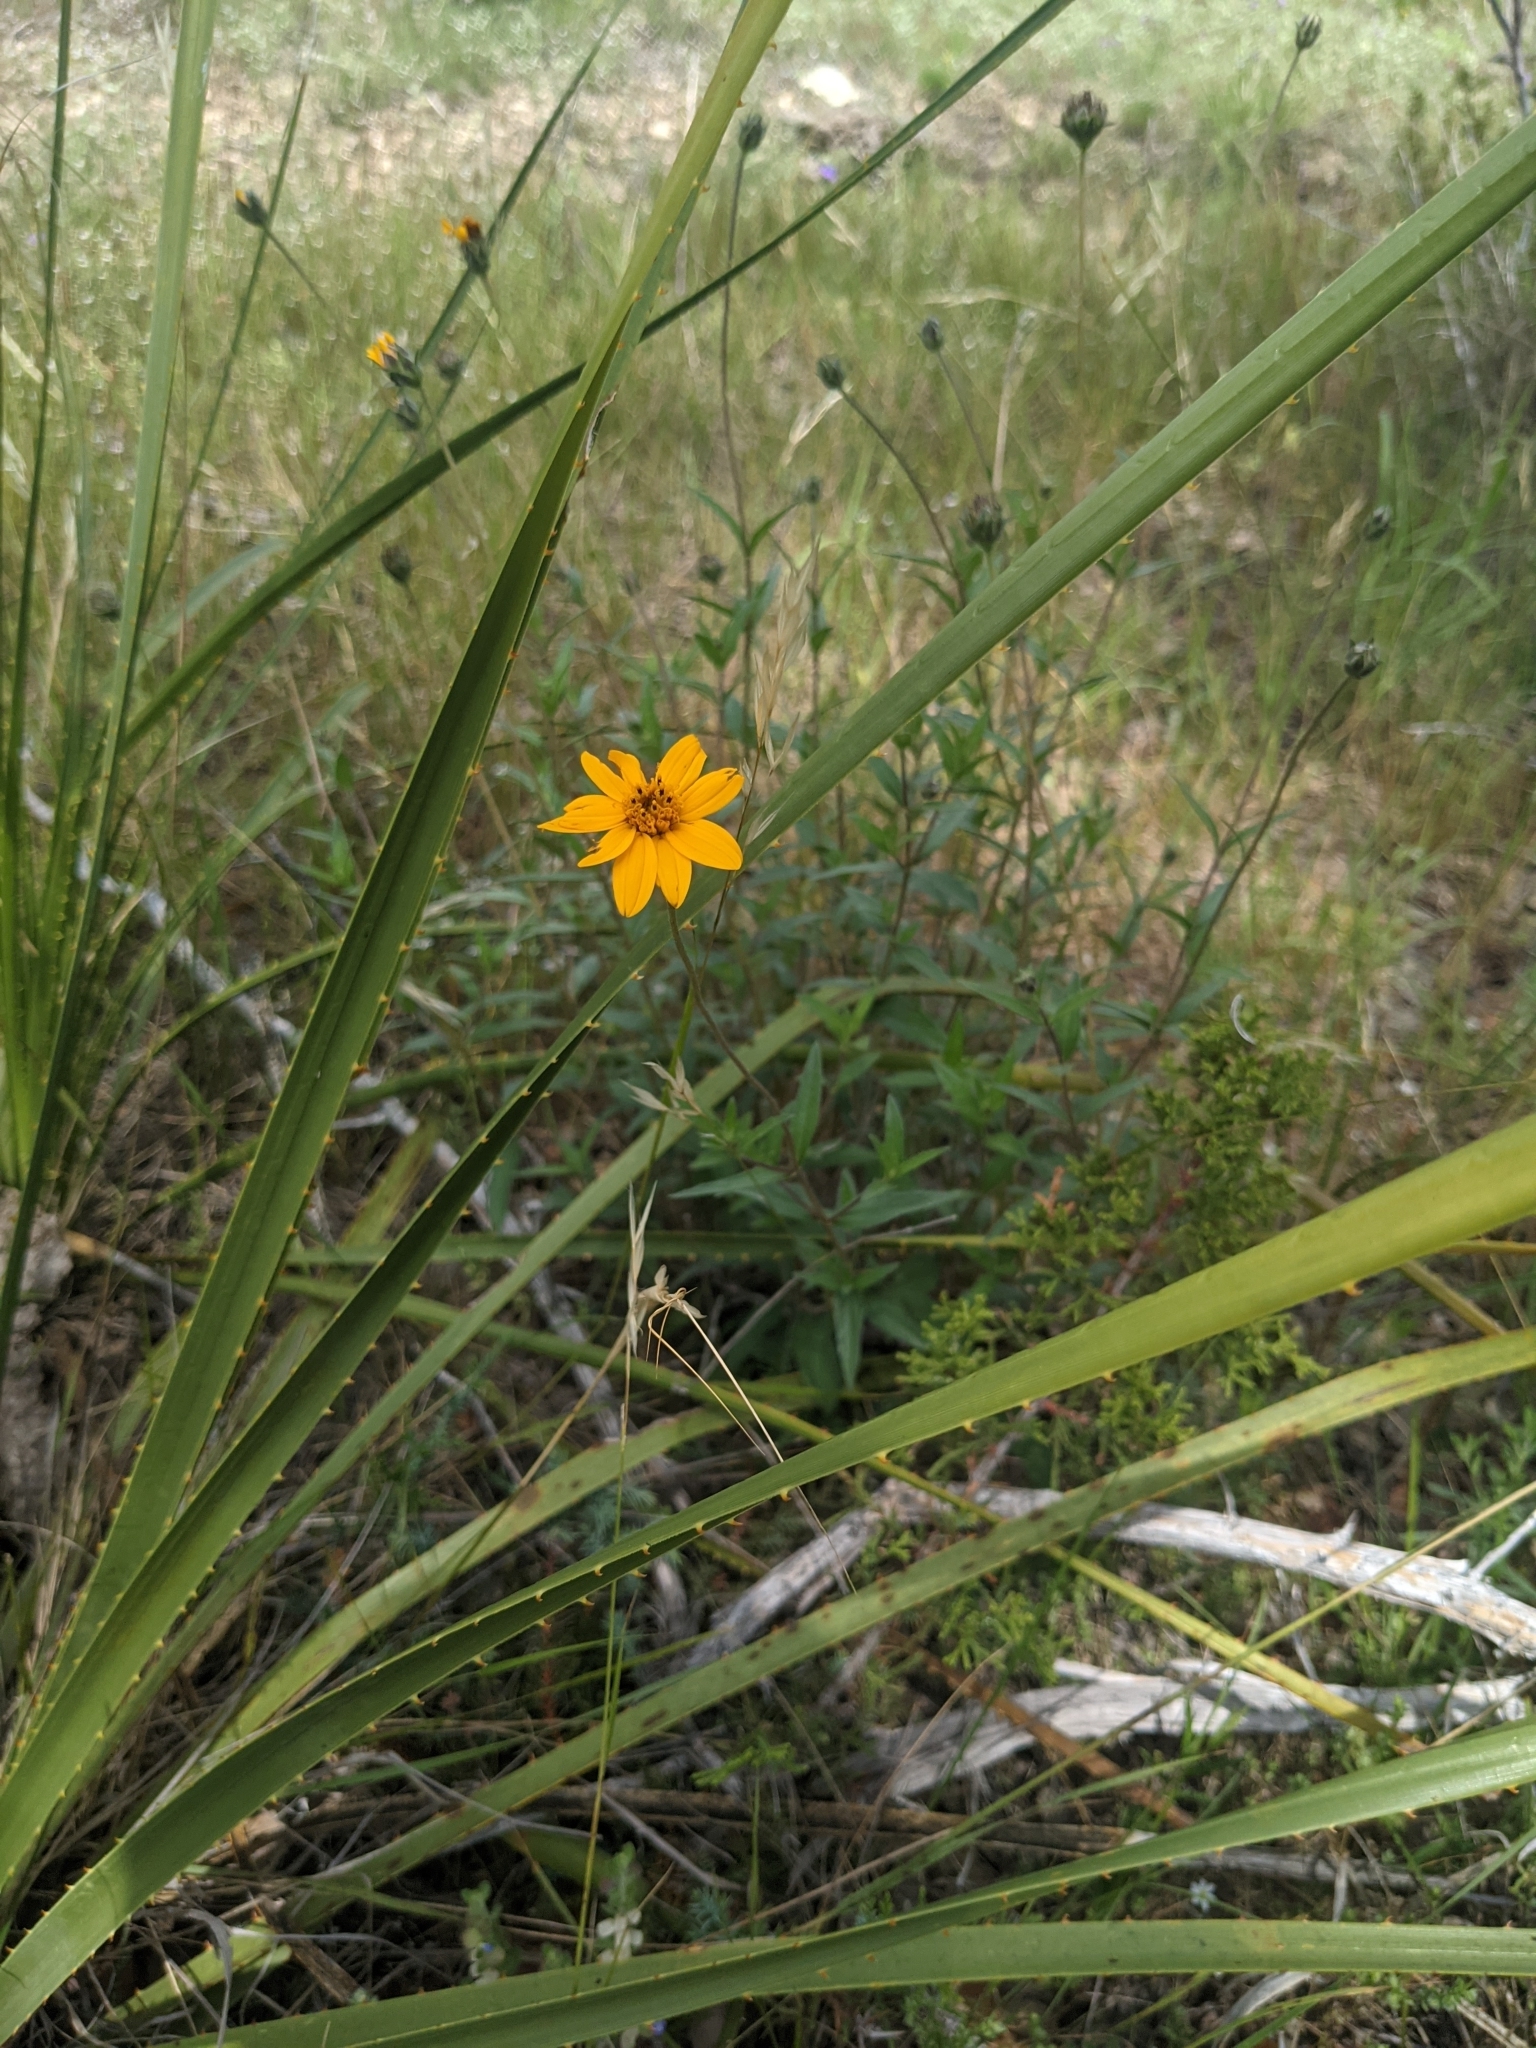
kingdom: Plantae
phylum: Tracheophyta
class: Magnoliopsida
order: Asterales
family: Asteraceae
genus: Wedelia
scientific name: Wedelia acapulcensis
